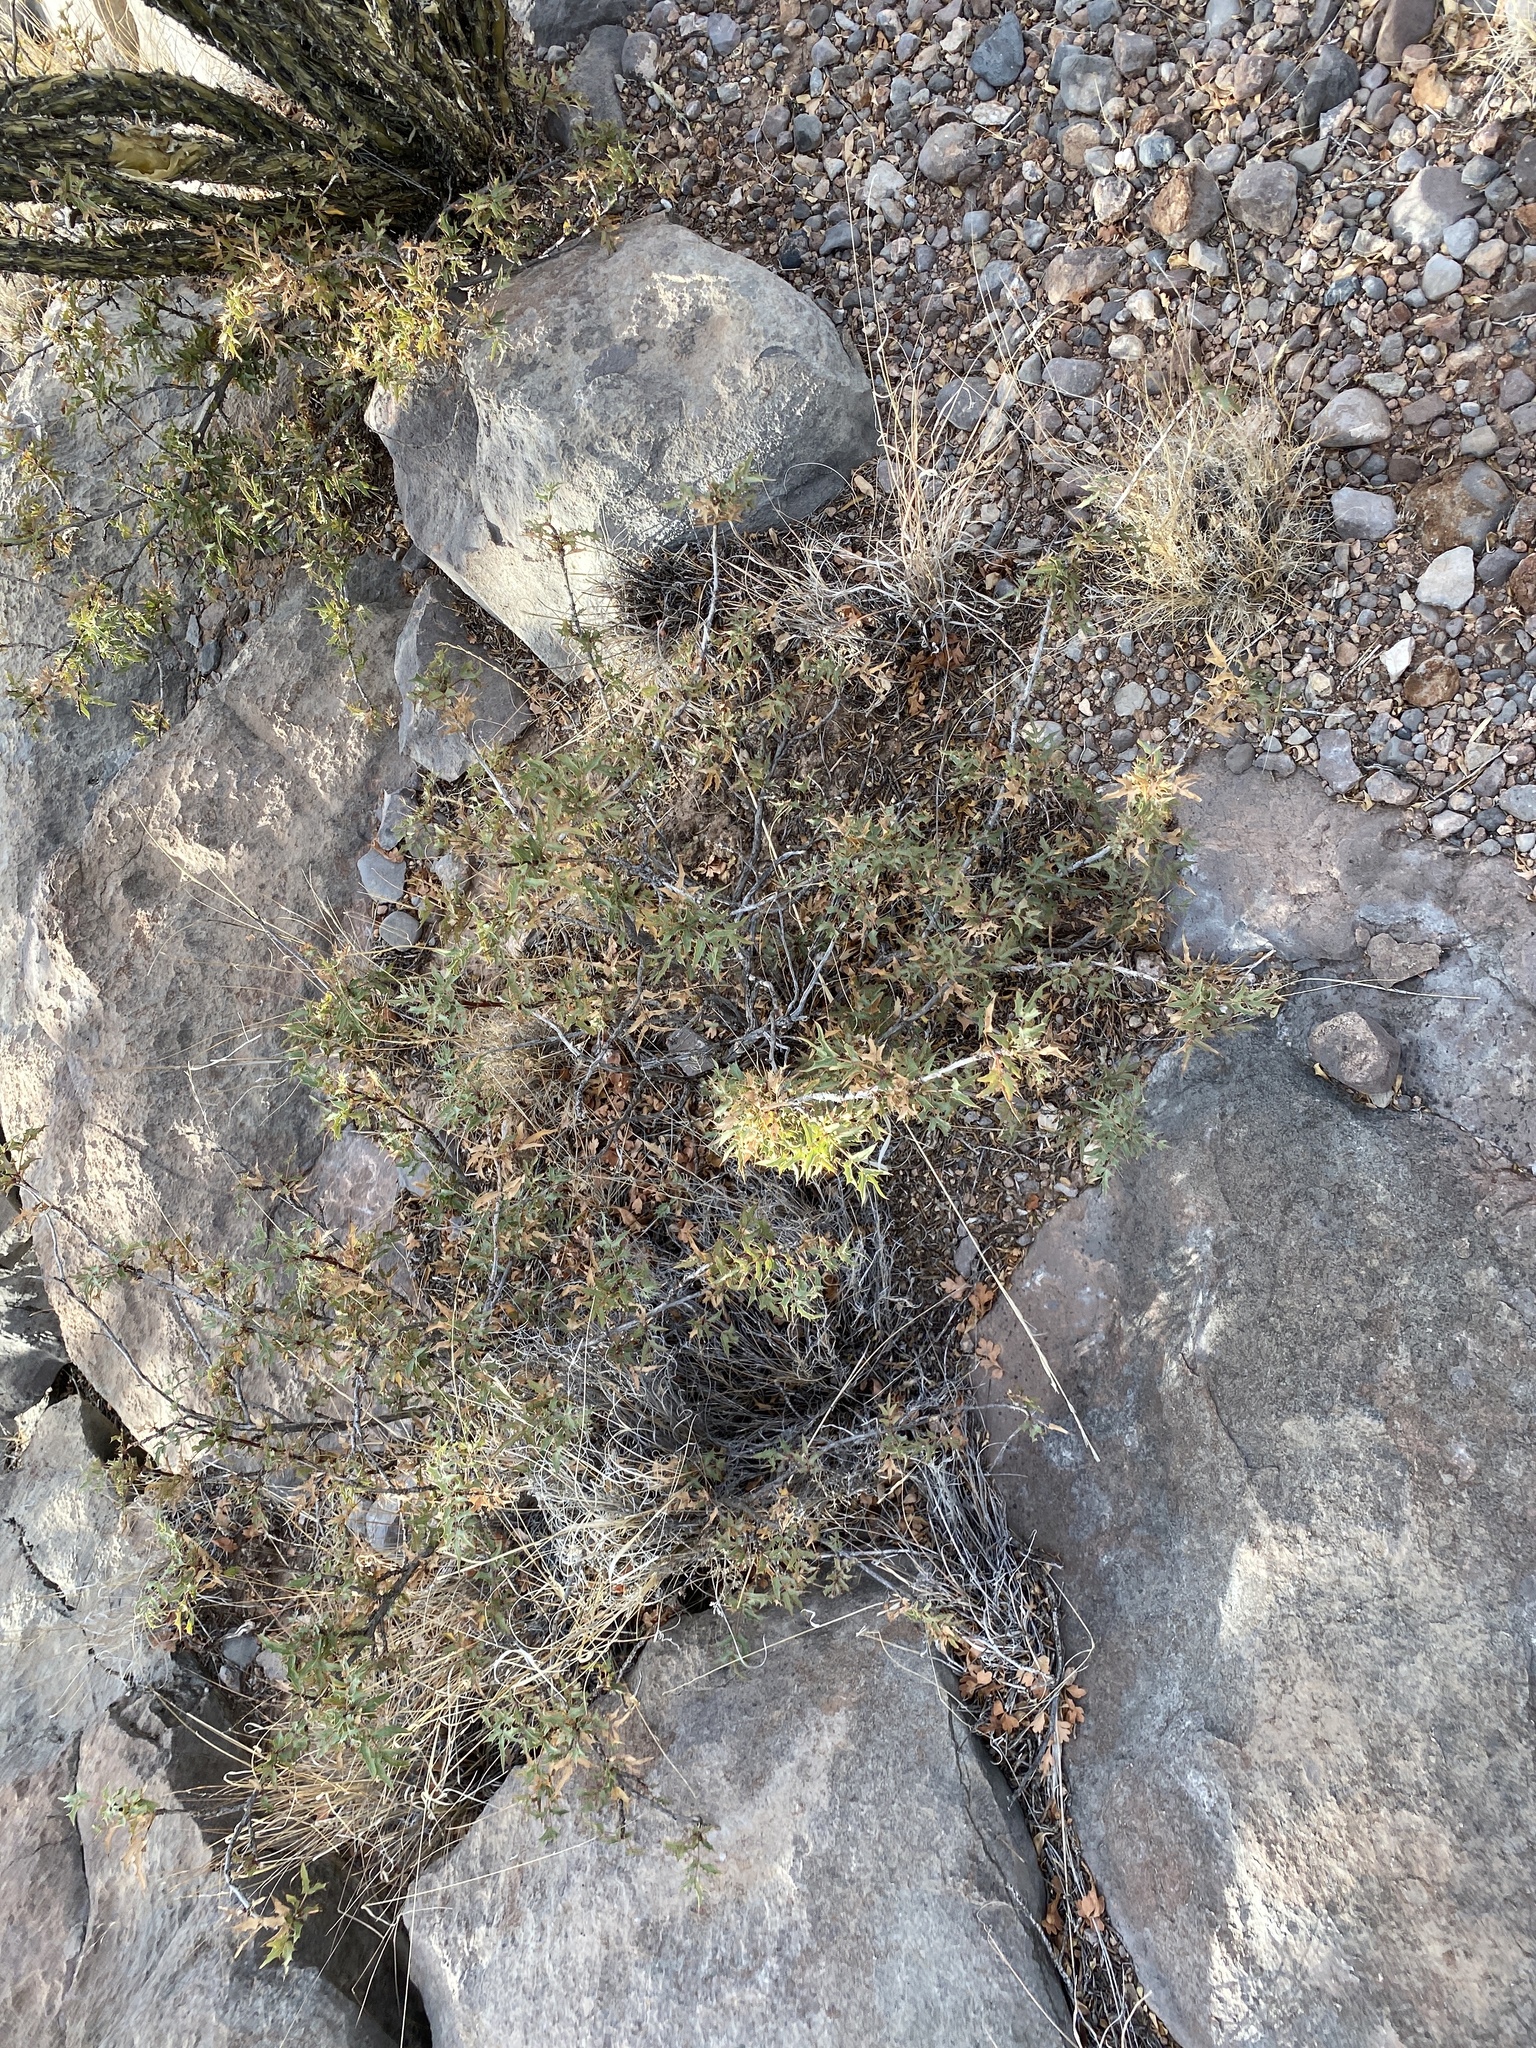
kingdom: Plantae
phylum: Tracheophyta
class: Magnoliopsida
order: Ranunculales
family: Berberidaceae
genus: Alloberberis
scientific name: Alloberberis haematocarpa
